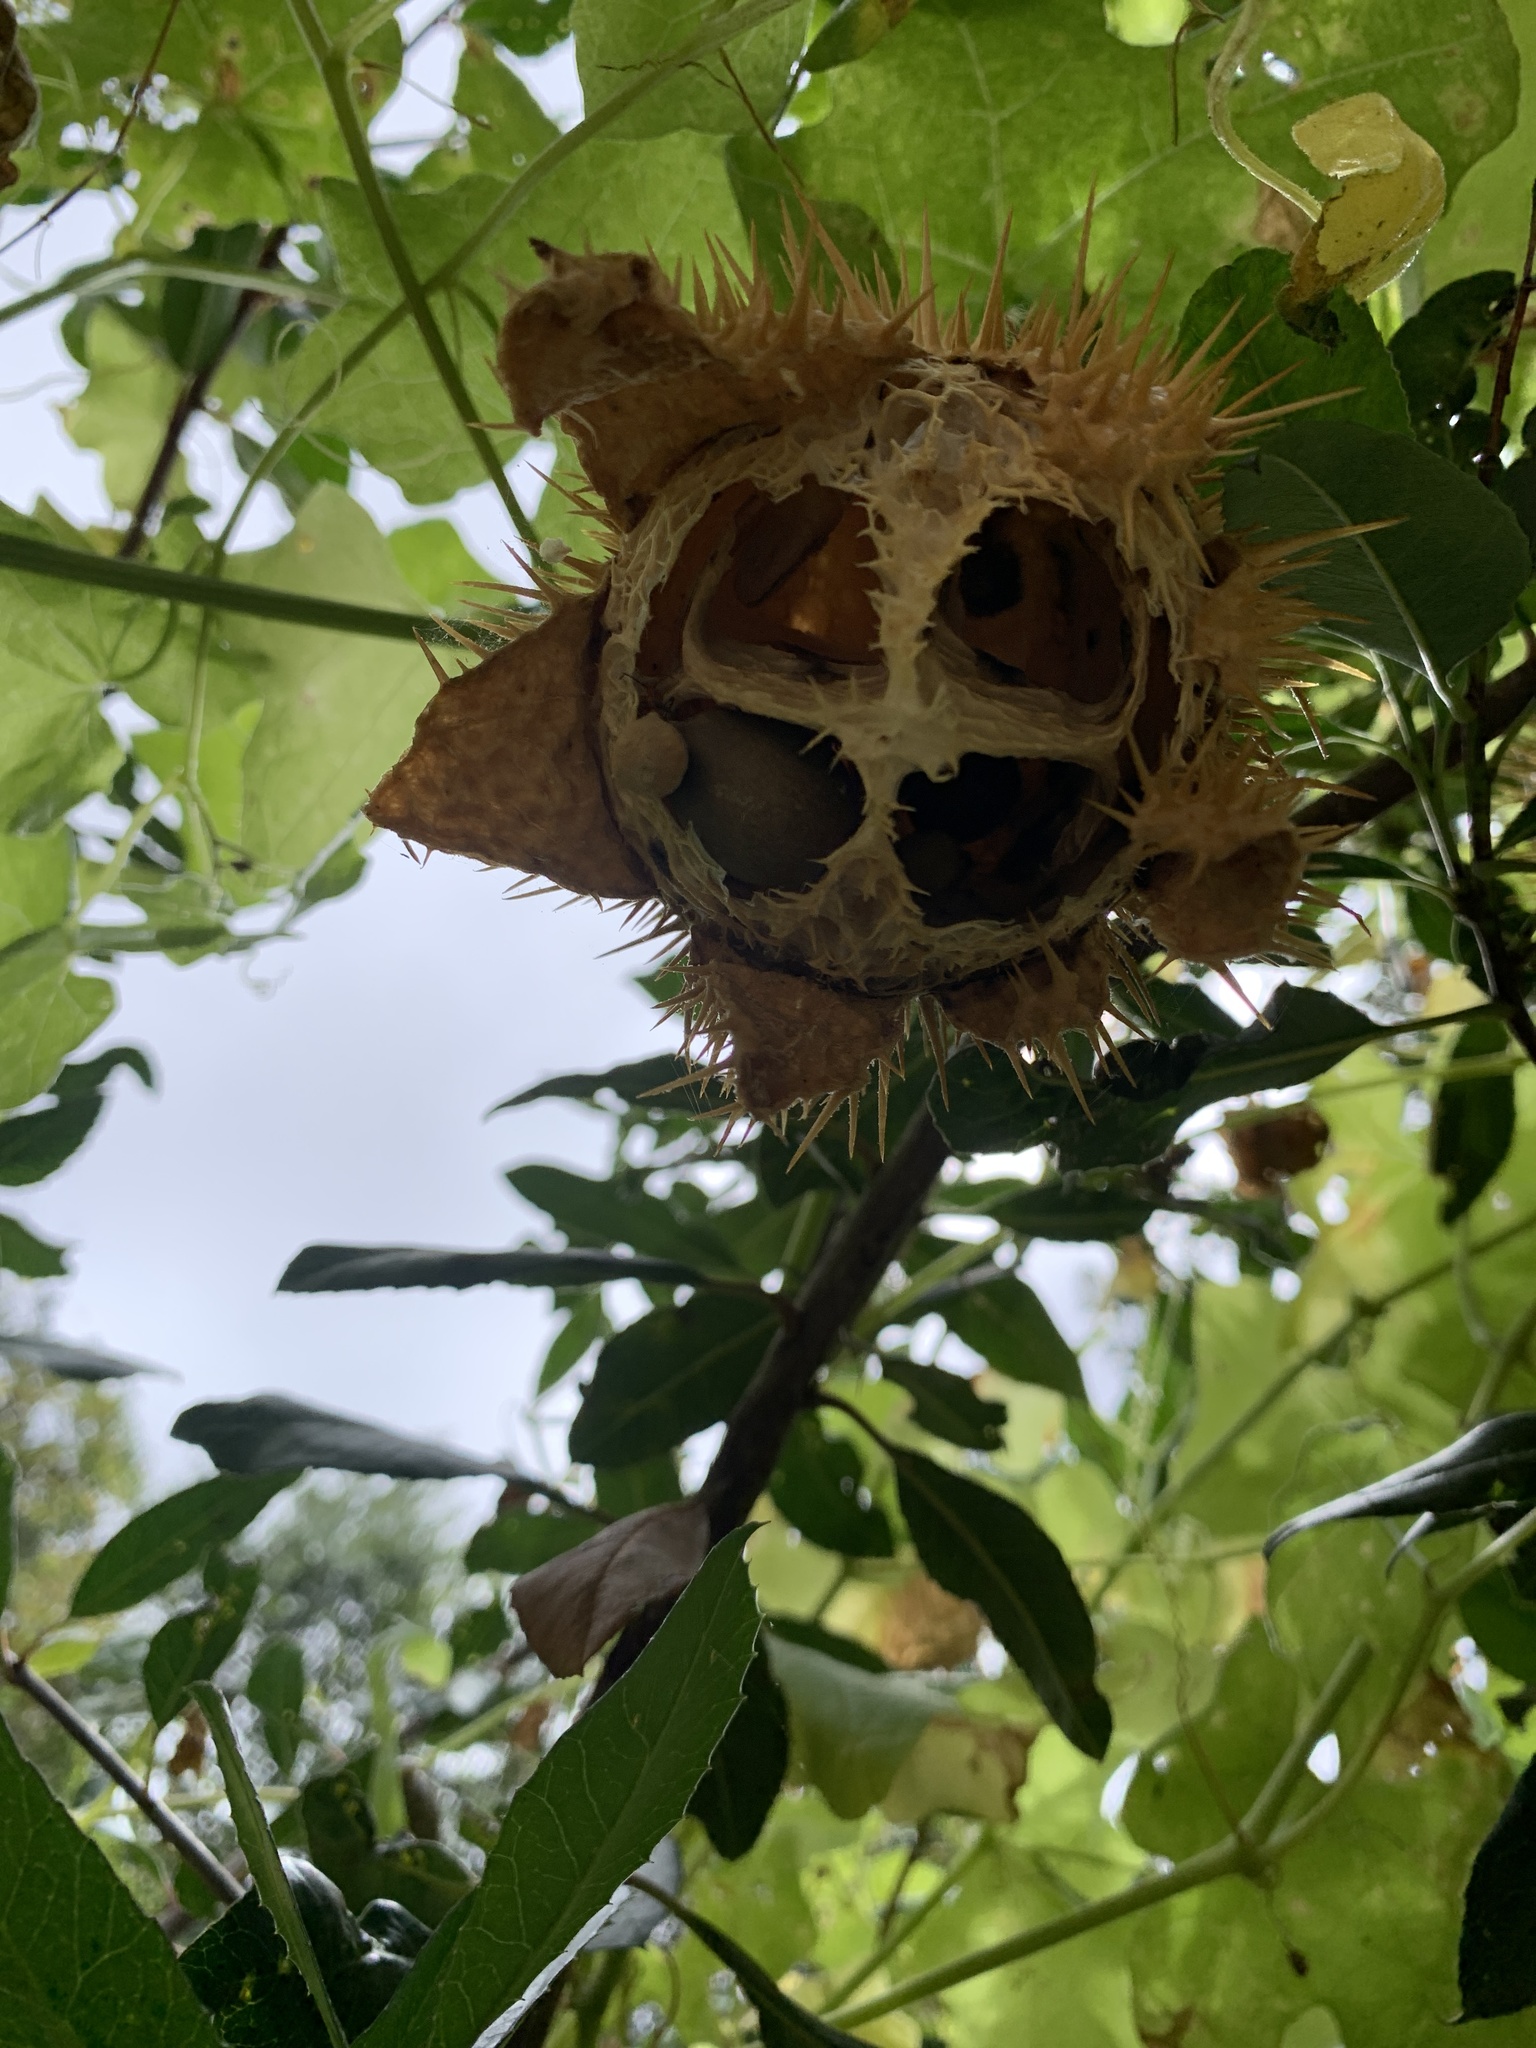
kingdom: Plantae
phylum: Tracheophyta
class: Magnoliopsida
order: Cucurbitales
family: Cucurbitaceae
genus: Marah
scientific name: Marah macrocarpa
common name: Cucamonga manroot
